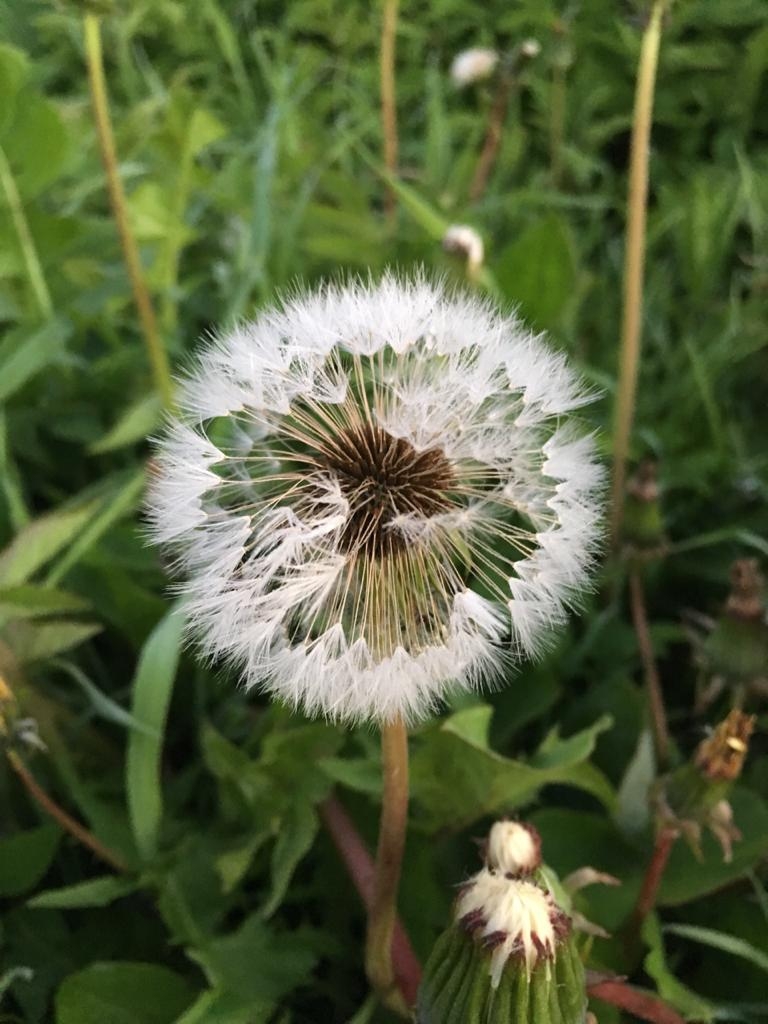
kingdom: Plantae
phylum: Tracheophyta
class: Magnoliopsida
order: Asterales
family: Asteraceae
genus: Taraxacum
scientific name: Taraxacum officinale
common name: Common dandelion
